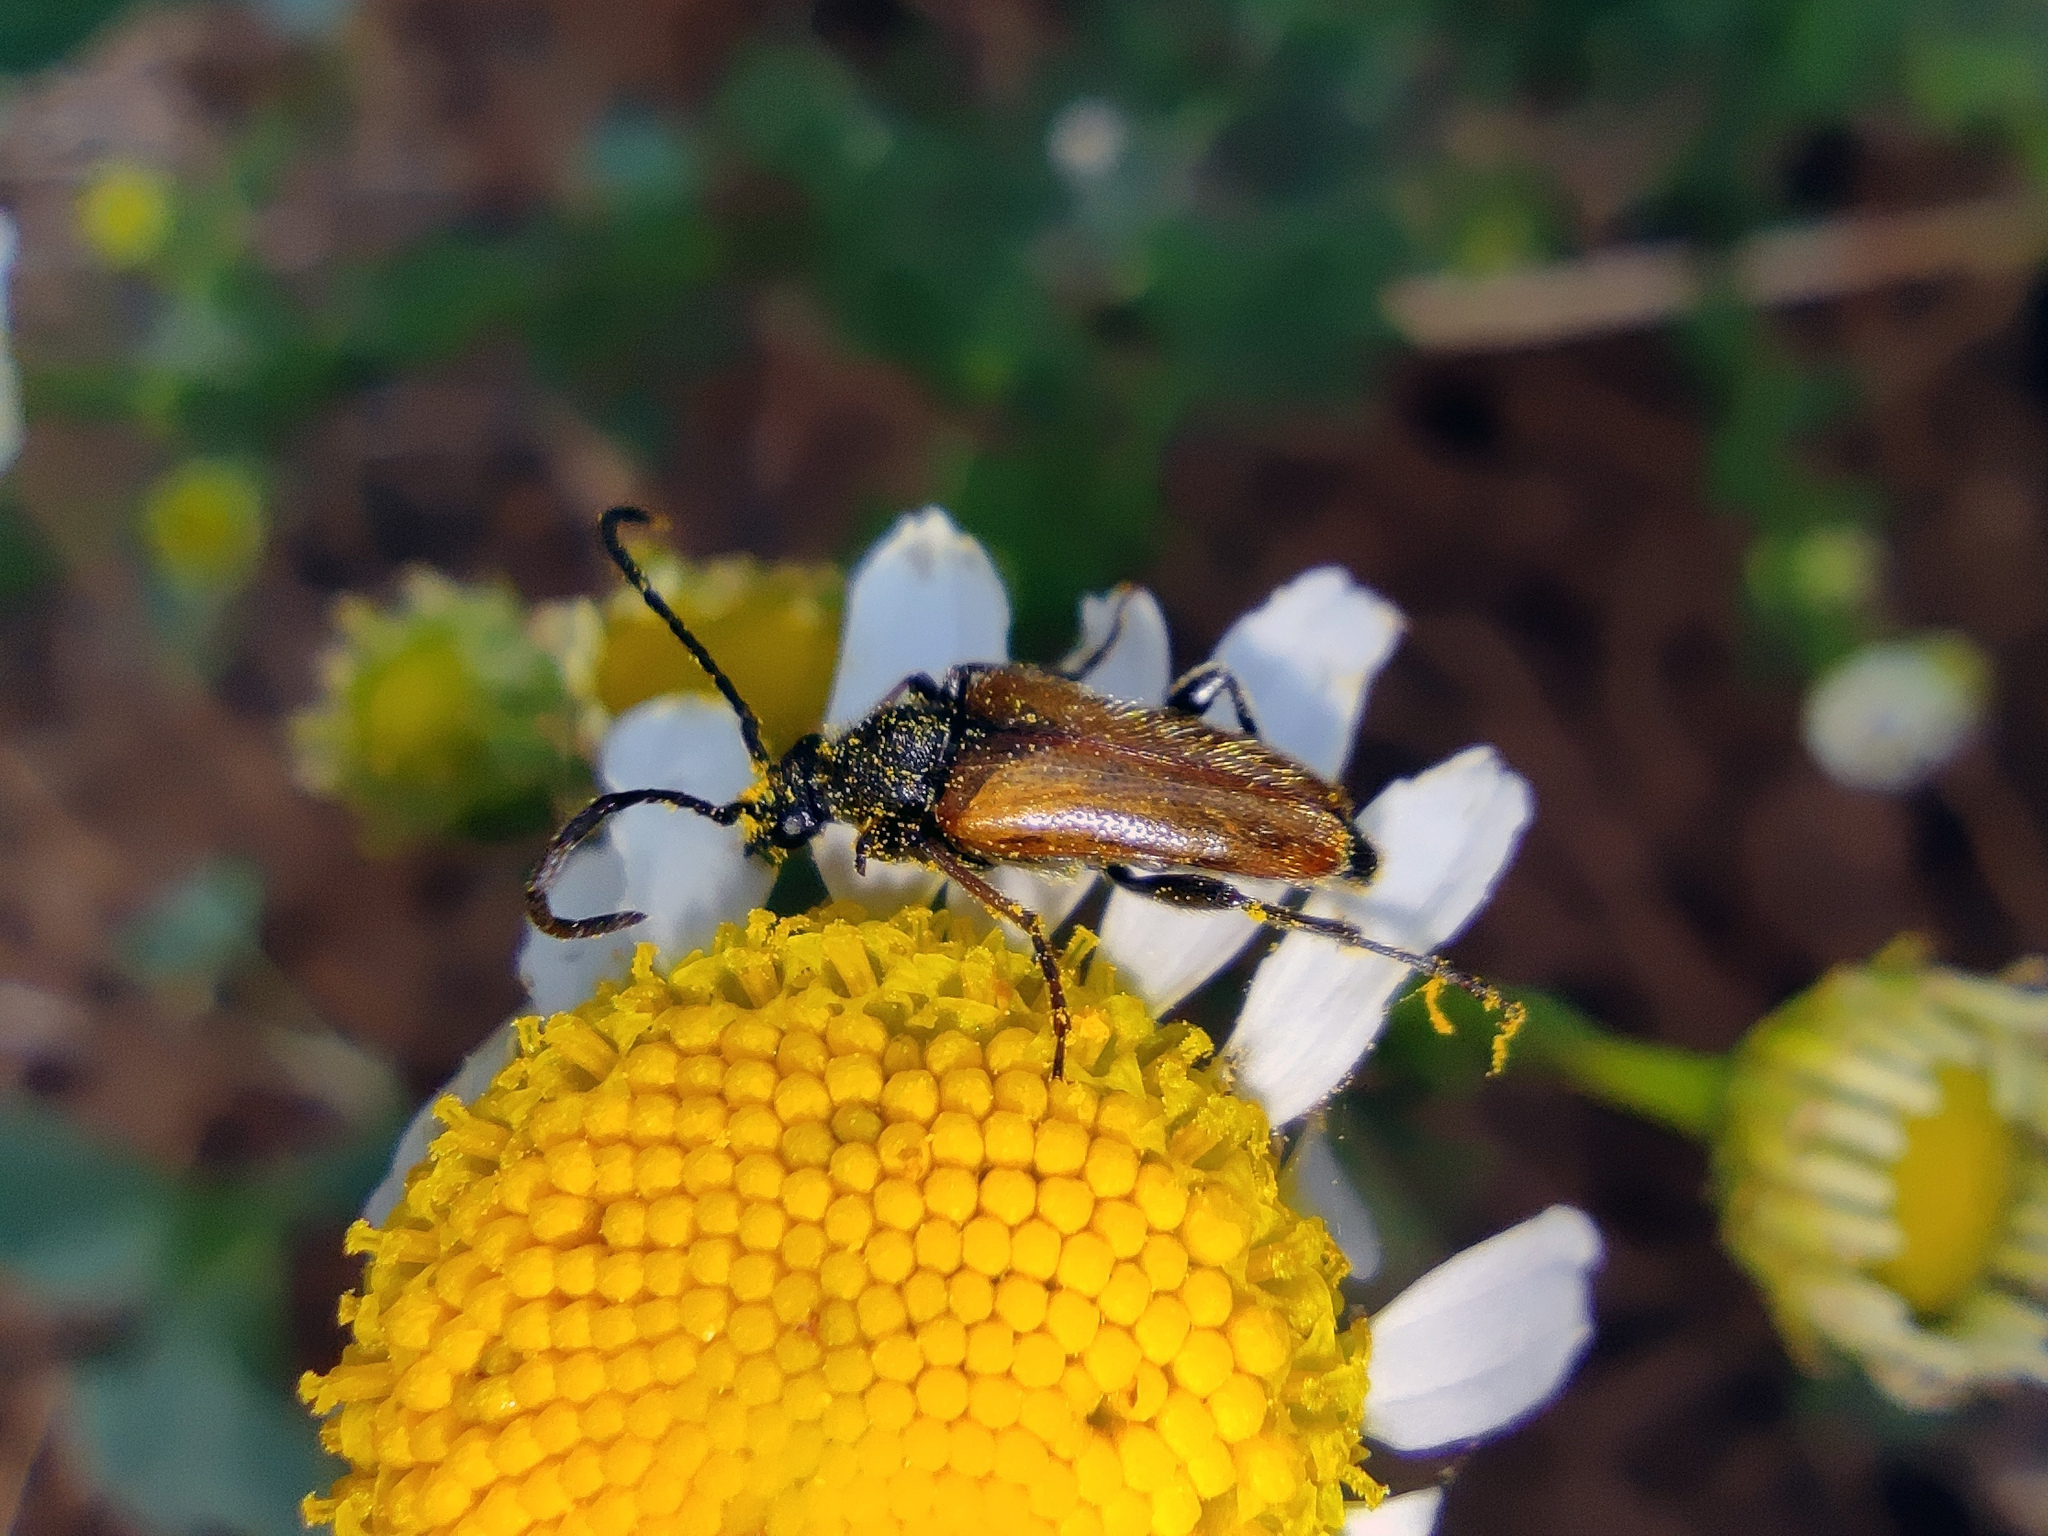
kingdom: Animalia
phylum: Arthropoda
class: Insecta
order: Coleoptera
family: Cerambycidae
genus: Pseudovadonia
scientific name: Pseudovadonia livida
